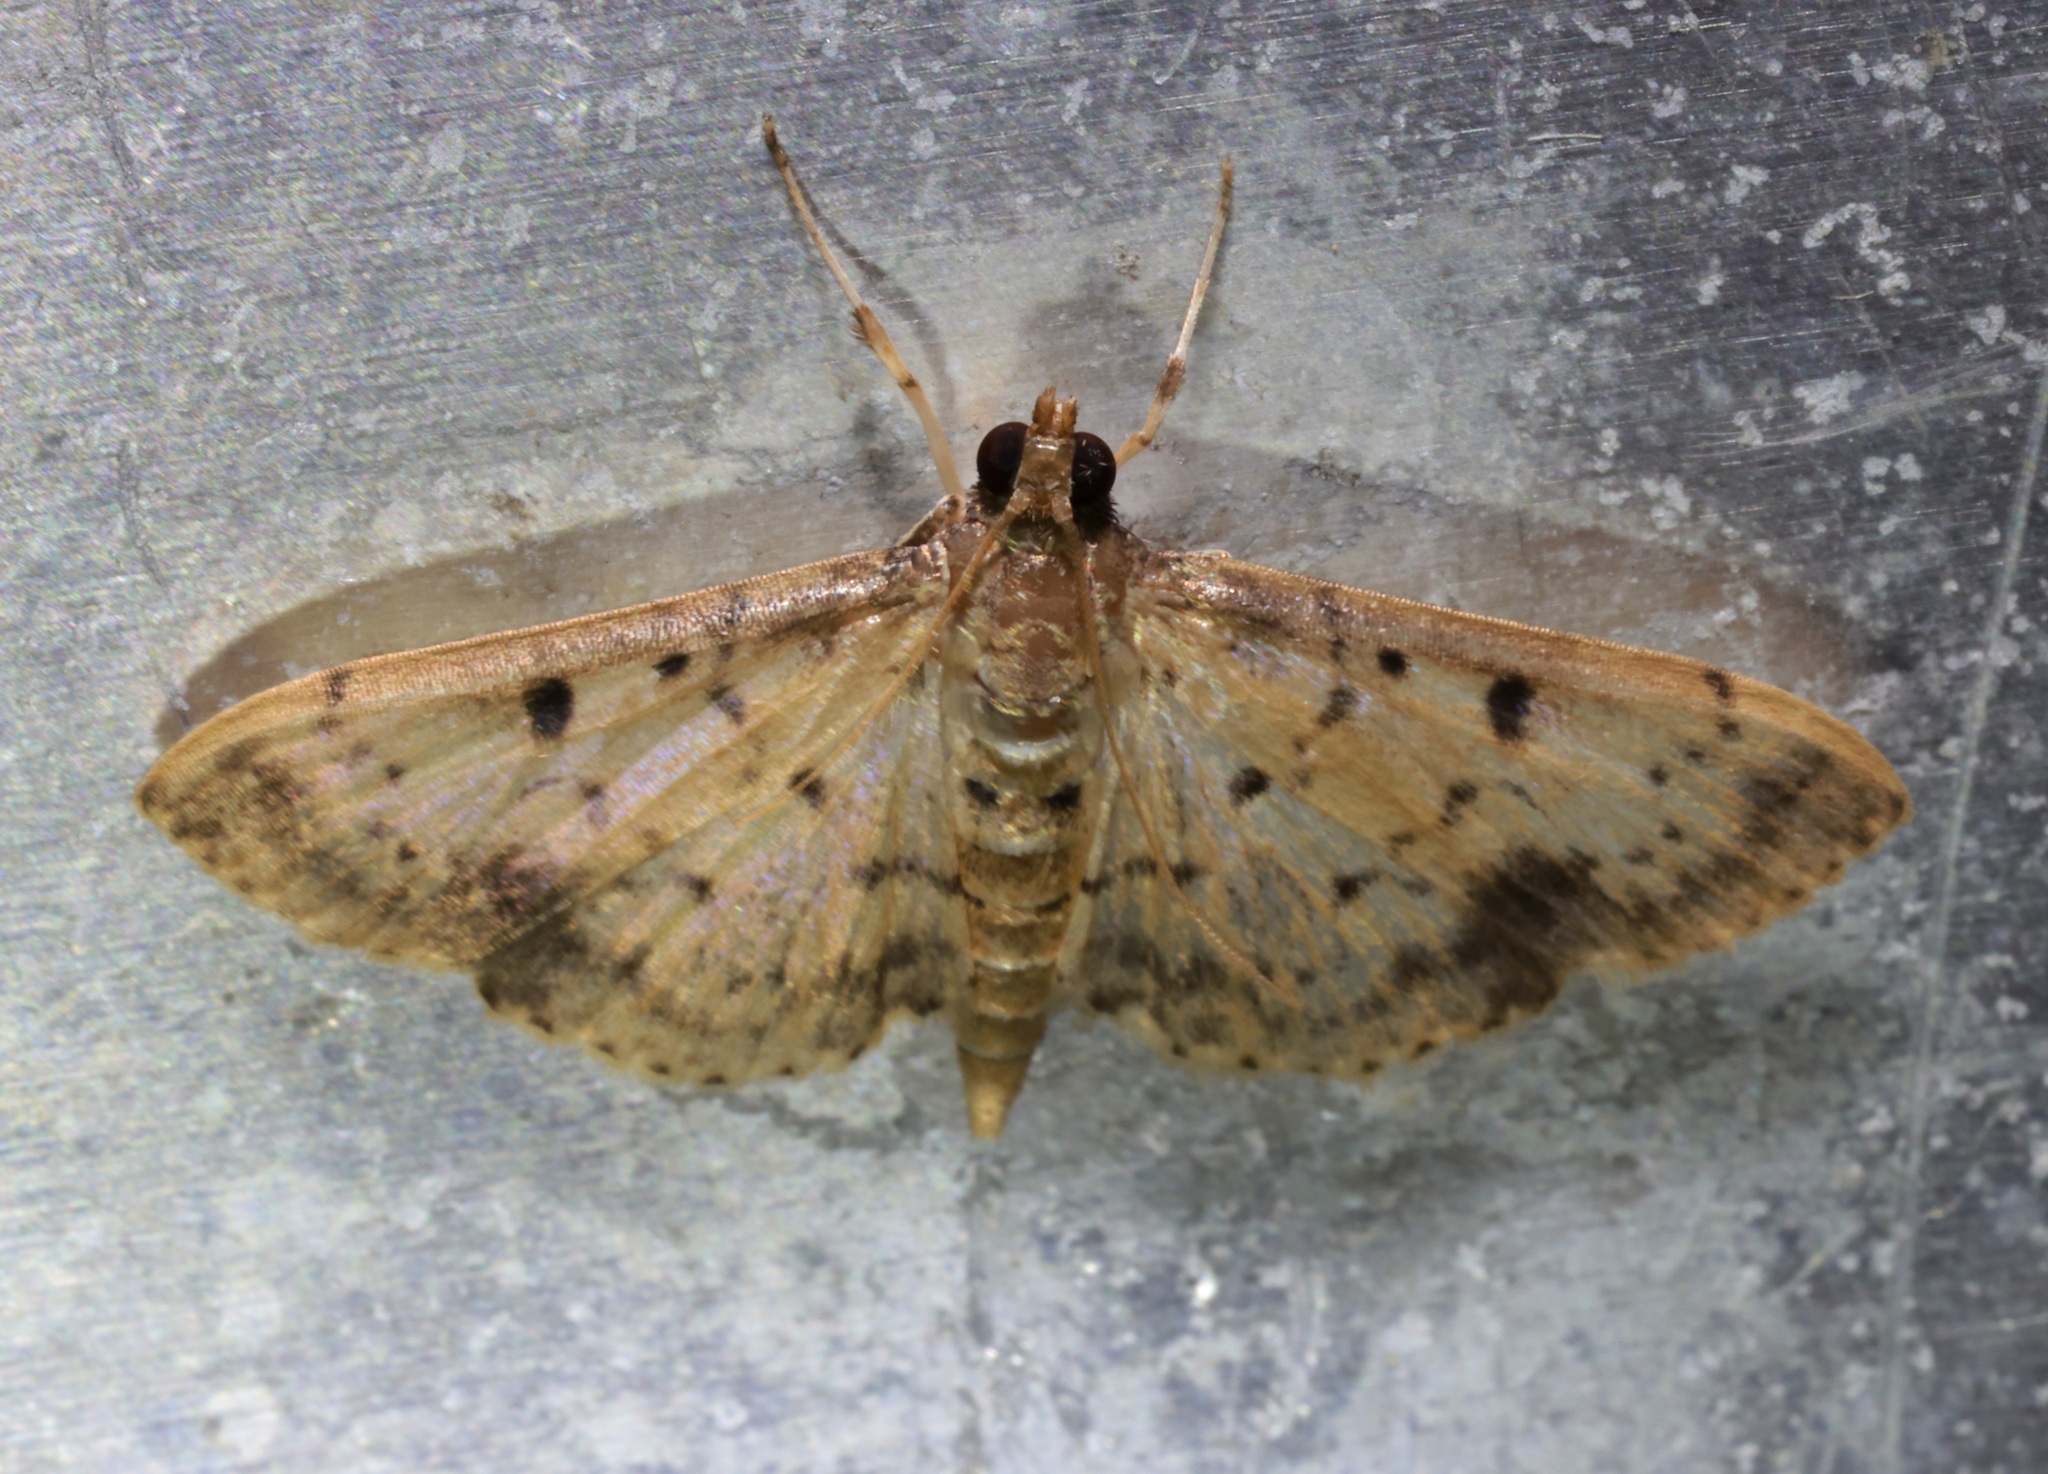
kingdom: Animalia
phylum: Arthropoda
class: Insecta
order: Lepidoptera
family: Crambidae
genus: Herpetogramma
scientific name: Herpetogramma cynaralis
